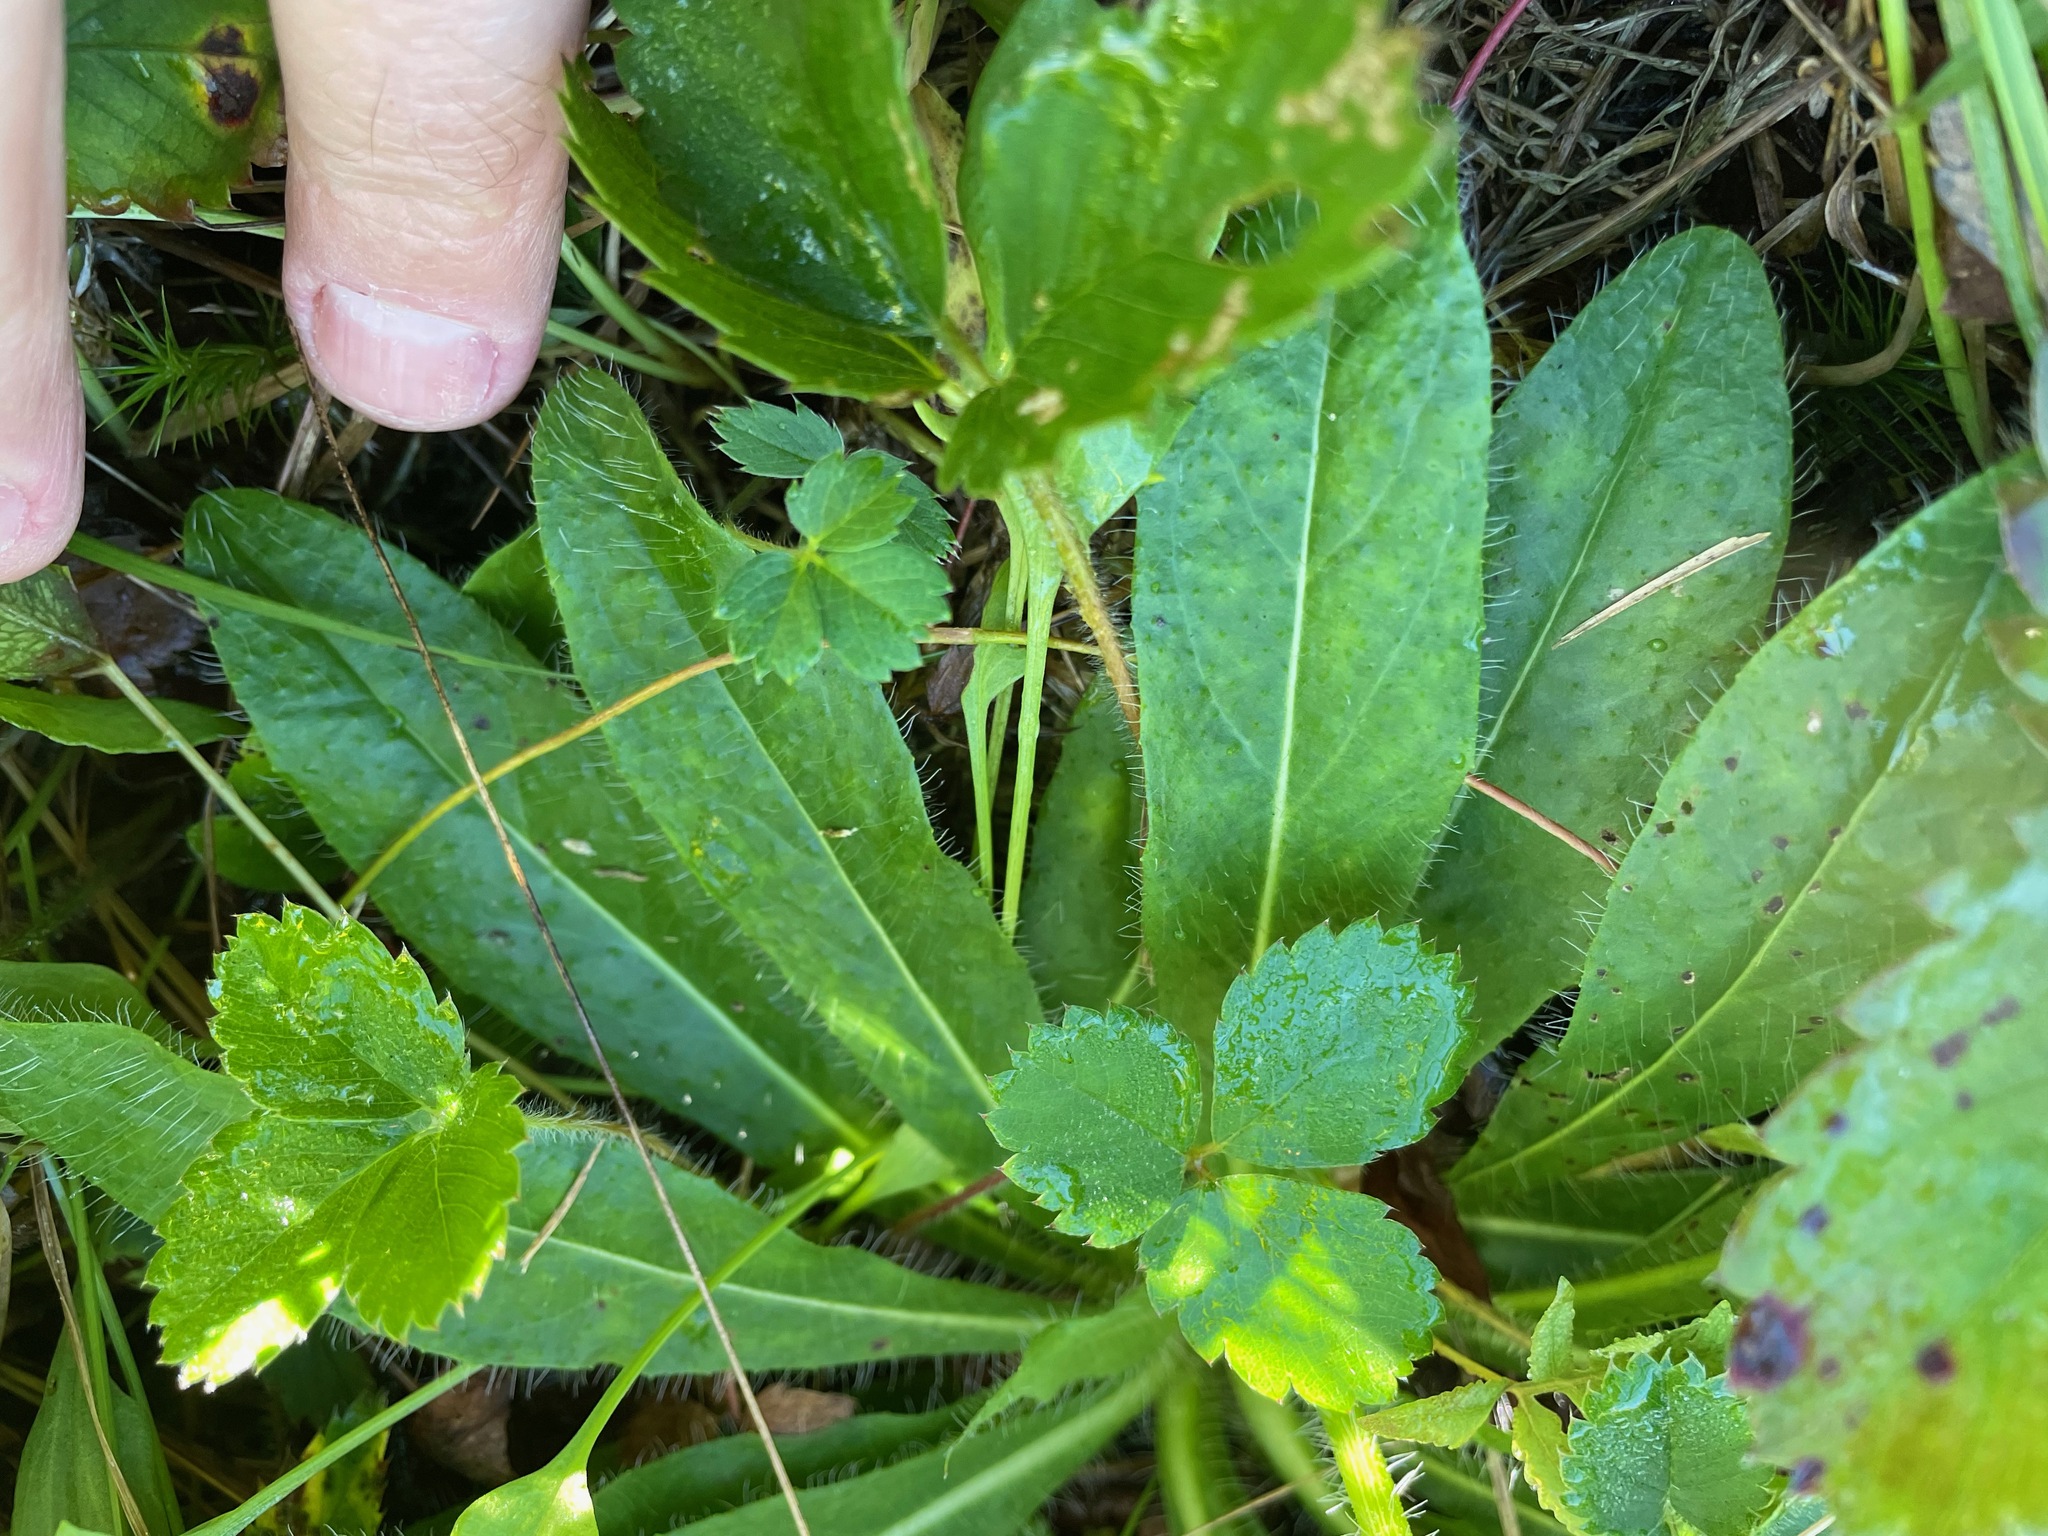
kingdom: Plantae
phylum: Tracheophyta
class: Magnoliopsida
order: Asterales
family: Asteraceae
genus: Pilosella
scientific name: Pilosella aurantiaca
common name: Fox-and-cubs
